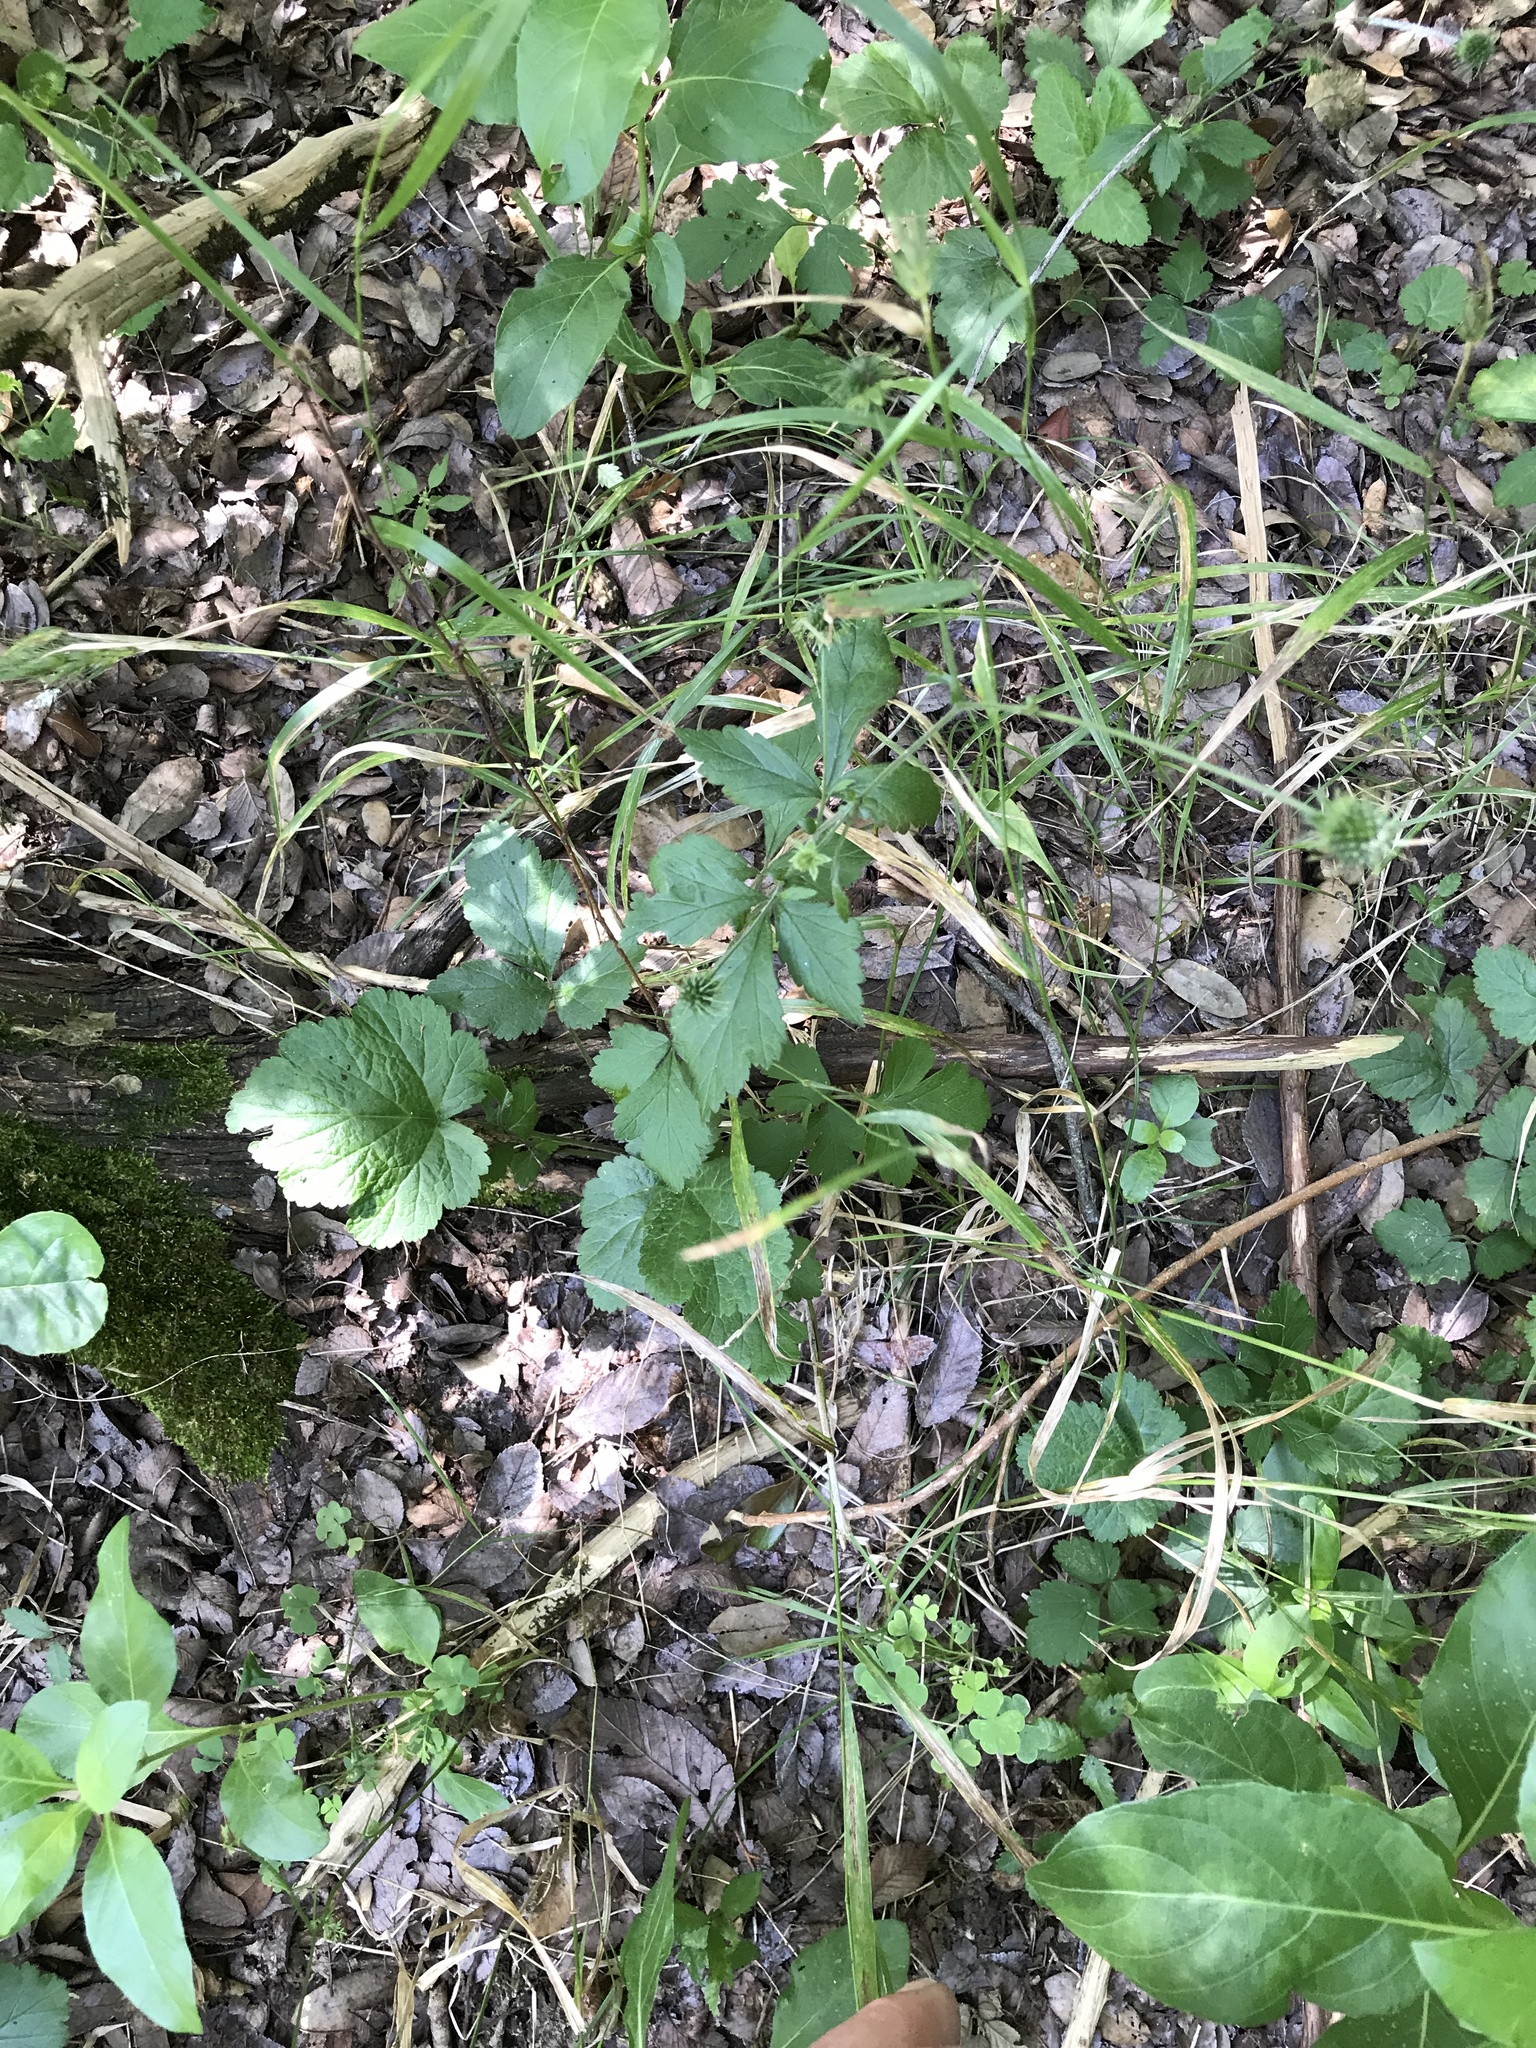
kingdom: Plantae
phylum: Tracheophyta
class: Magnoliopsida
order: Rosales
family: Rosaceae
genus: Geum
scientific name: Geum canadense
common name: White avens
